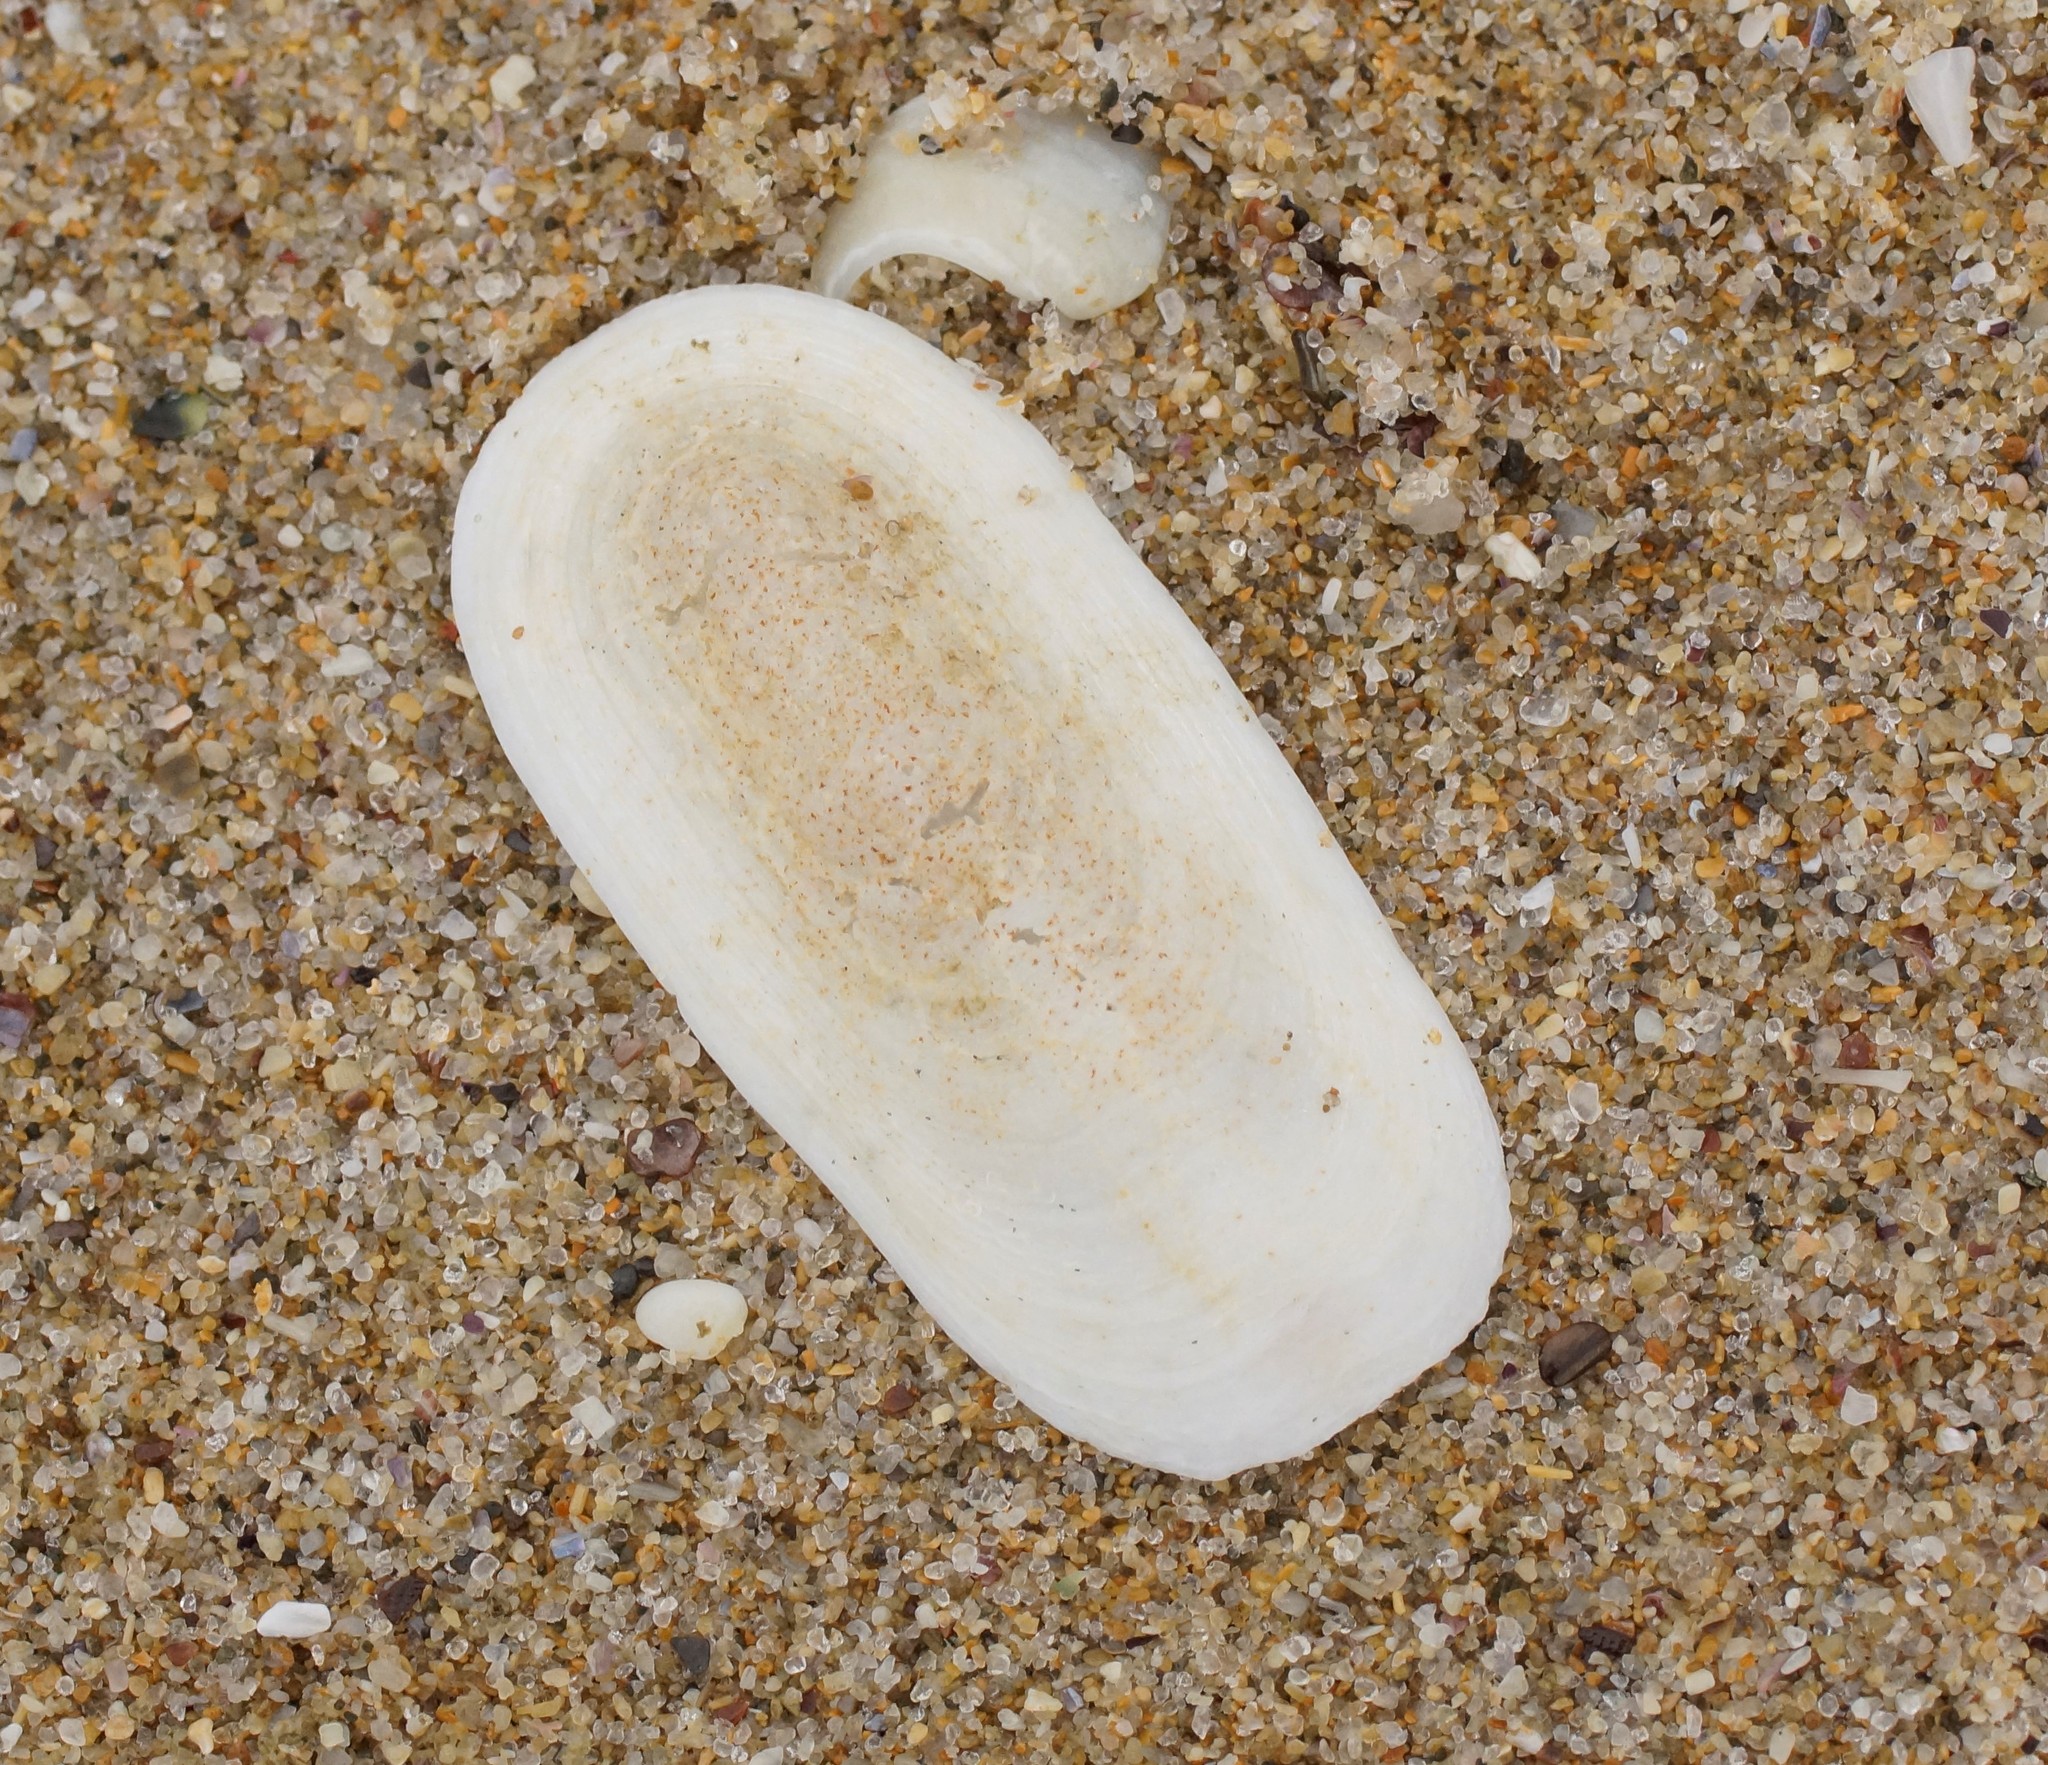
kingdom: Animalia
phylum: Mollusca
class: Gastropoda
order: Lepetellida
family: Fissurellidae
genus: Scutus
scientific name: Scutus antipodes
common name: Duckbill shell
